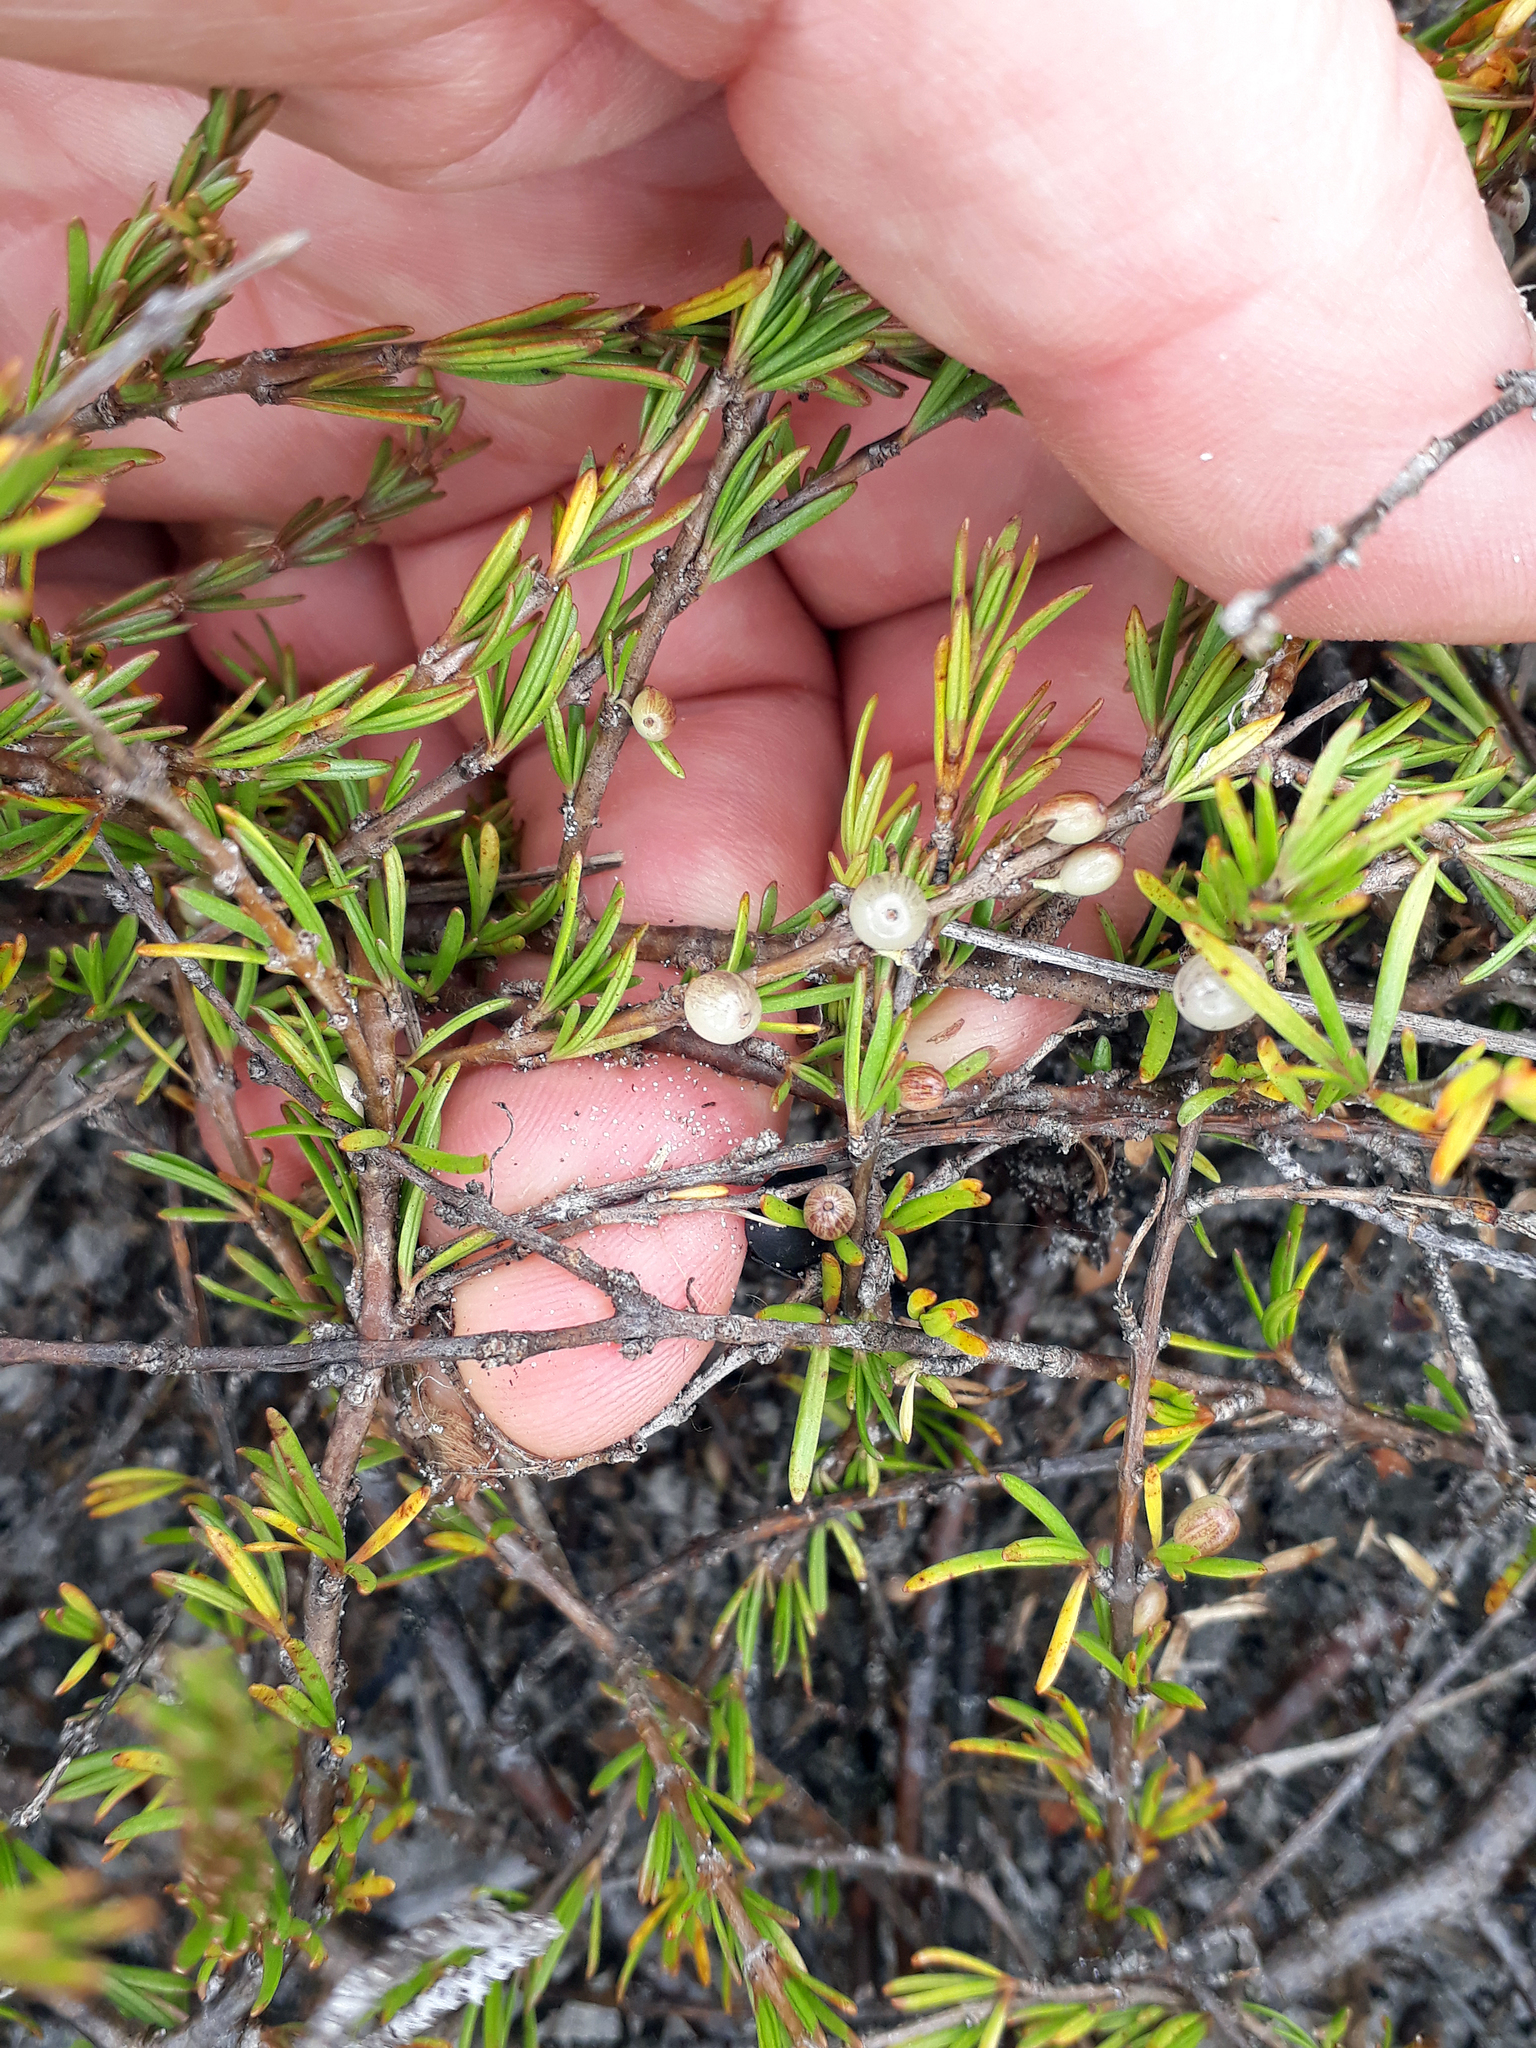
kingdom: Plantae
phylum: Tracheophyta
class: Magnoliopsida
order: Gentianales
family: Rubiaceae
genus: Coprosma
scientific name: Coprosma acerosa
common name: Sand coprosma
